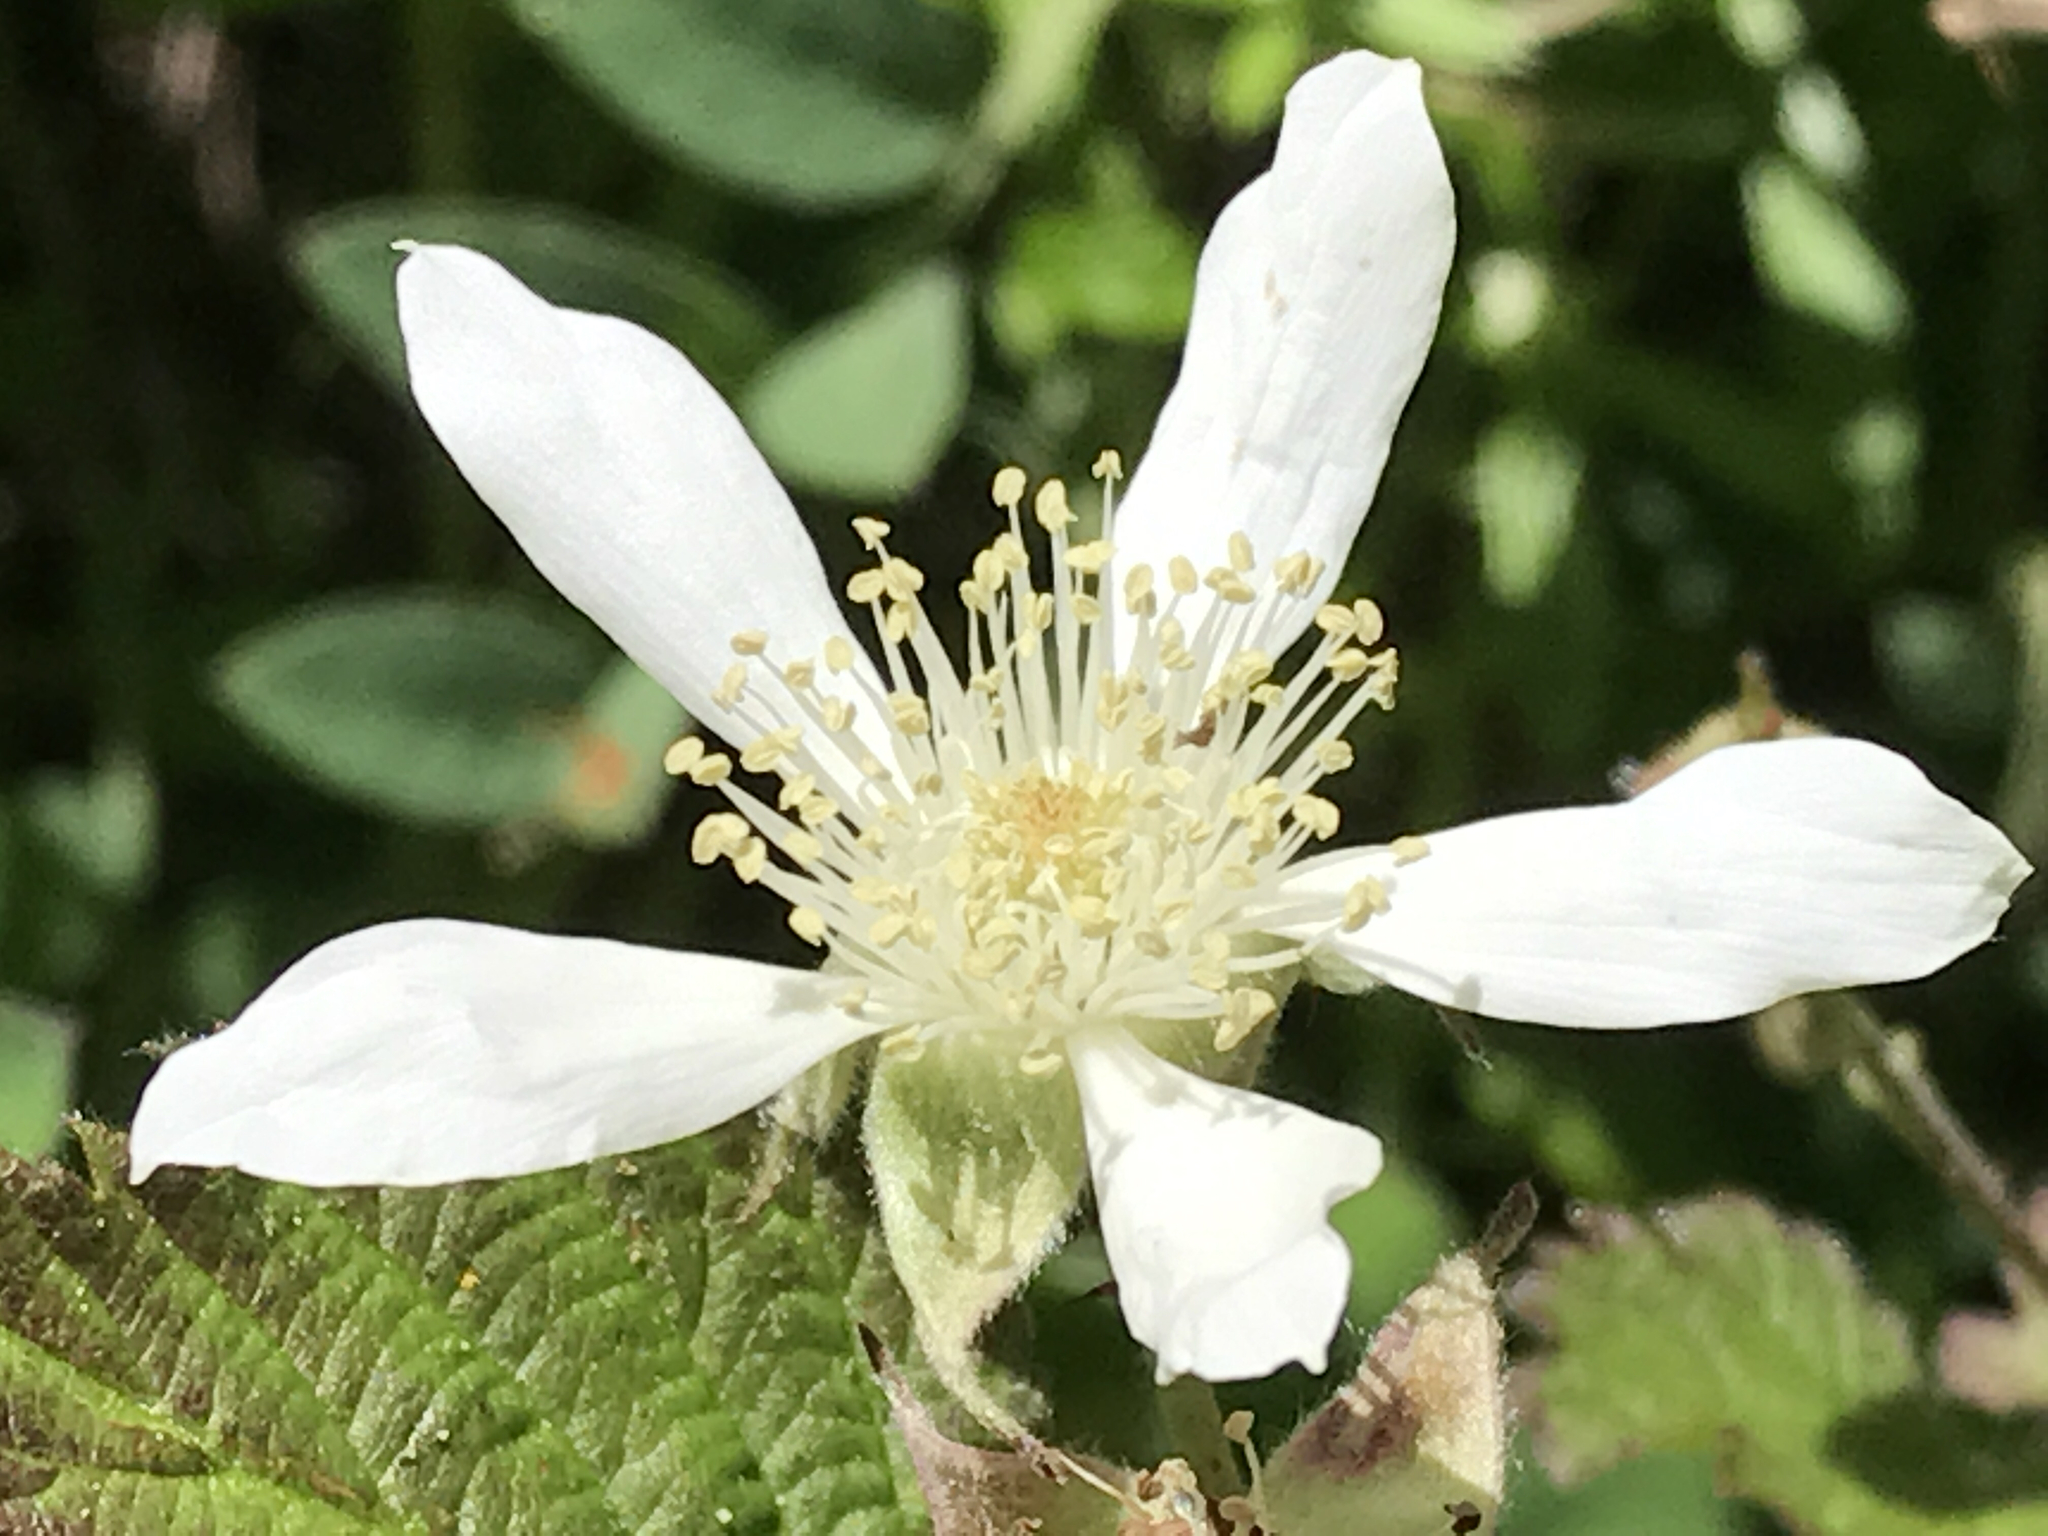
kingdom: Plantae
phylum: Tracheophyta
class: Magnoliopsida
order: Rosales
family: Rosaceae
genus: Rubus
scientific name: Rubus ursinus
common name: Pacific blackberry
